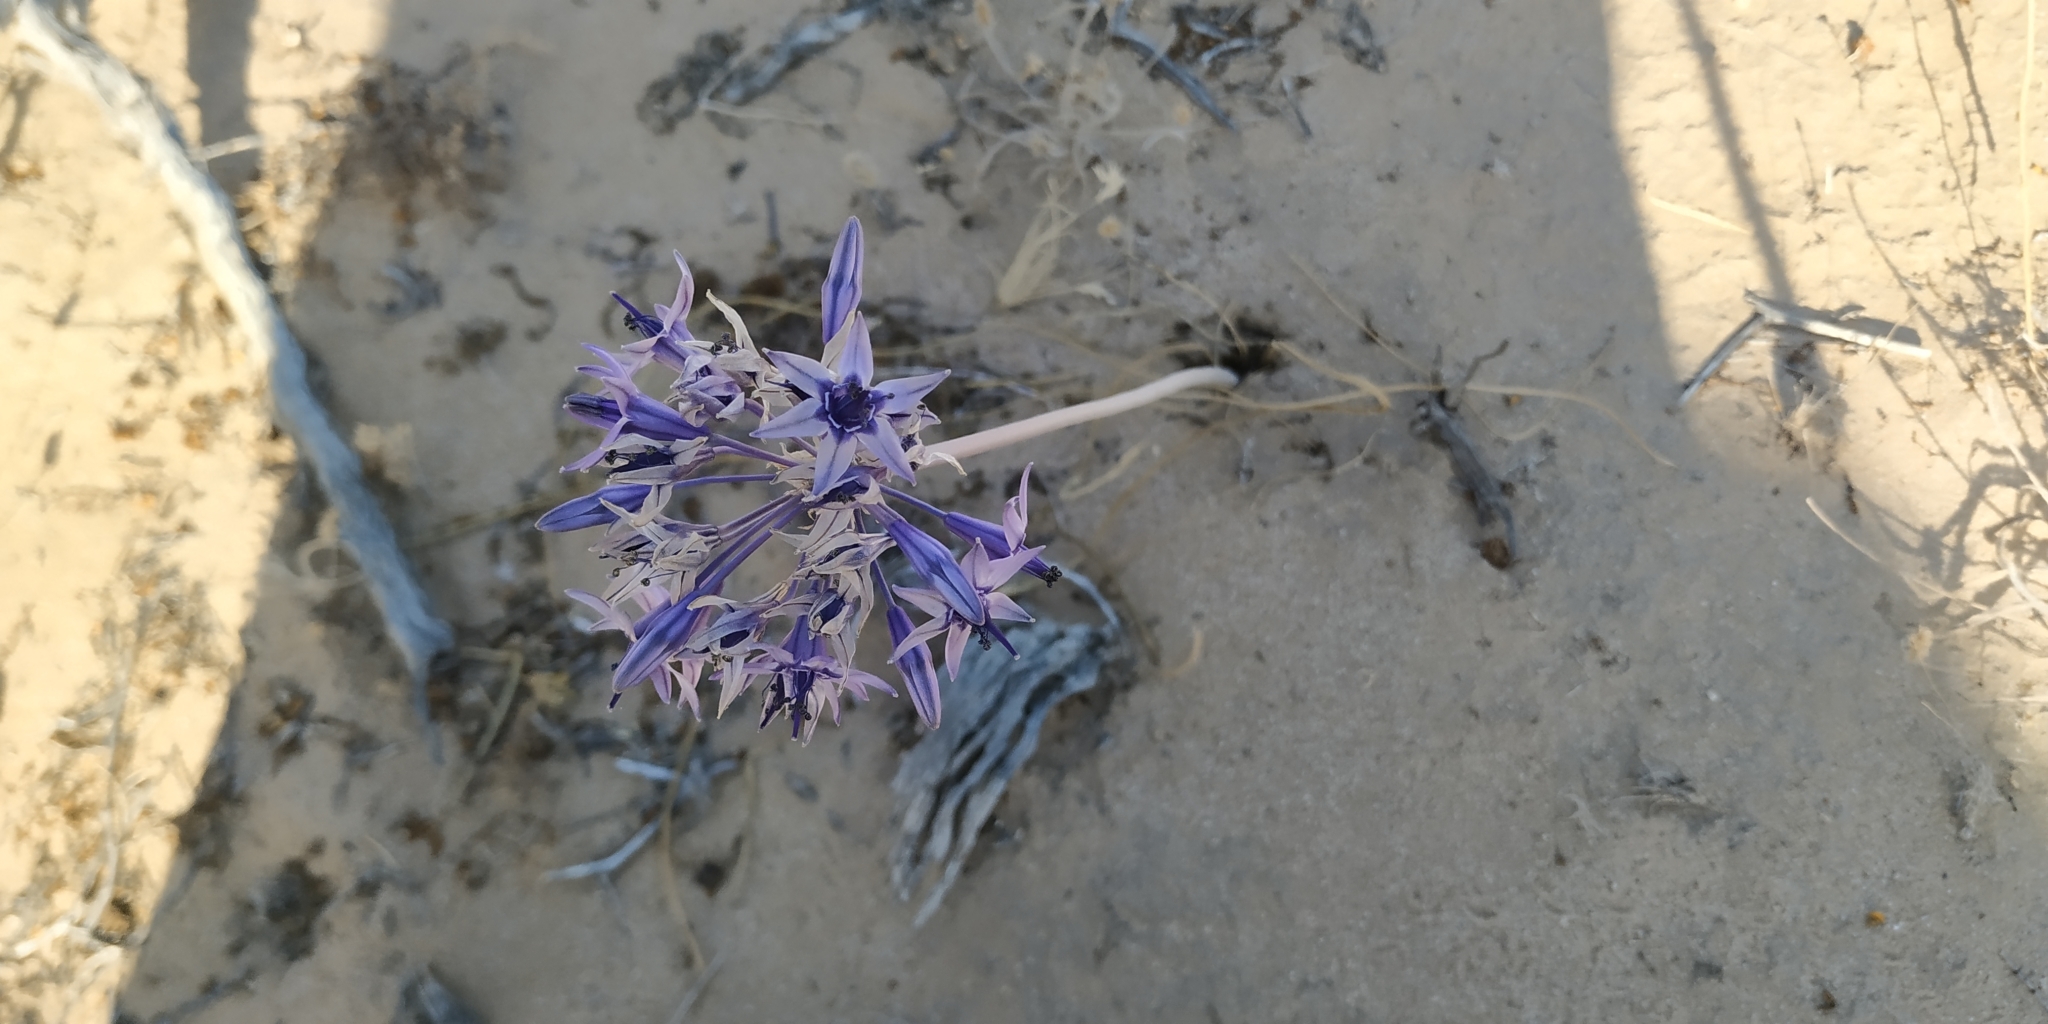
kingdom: Plantae
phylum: Tracheophyta
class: Liliopsida
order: Asparagales
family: Asparagaceae
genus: Triteleiopsis
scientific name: Triteleiopsis palmeri
